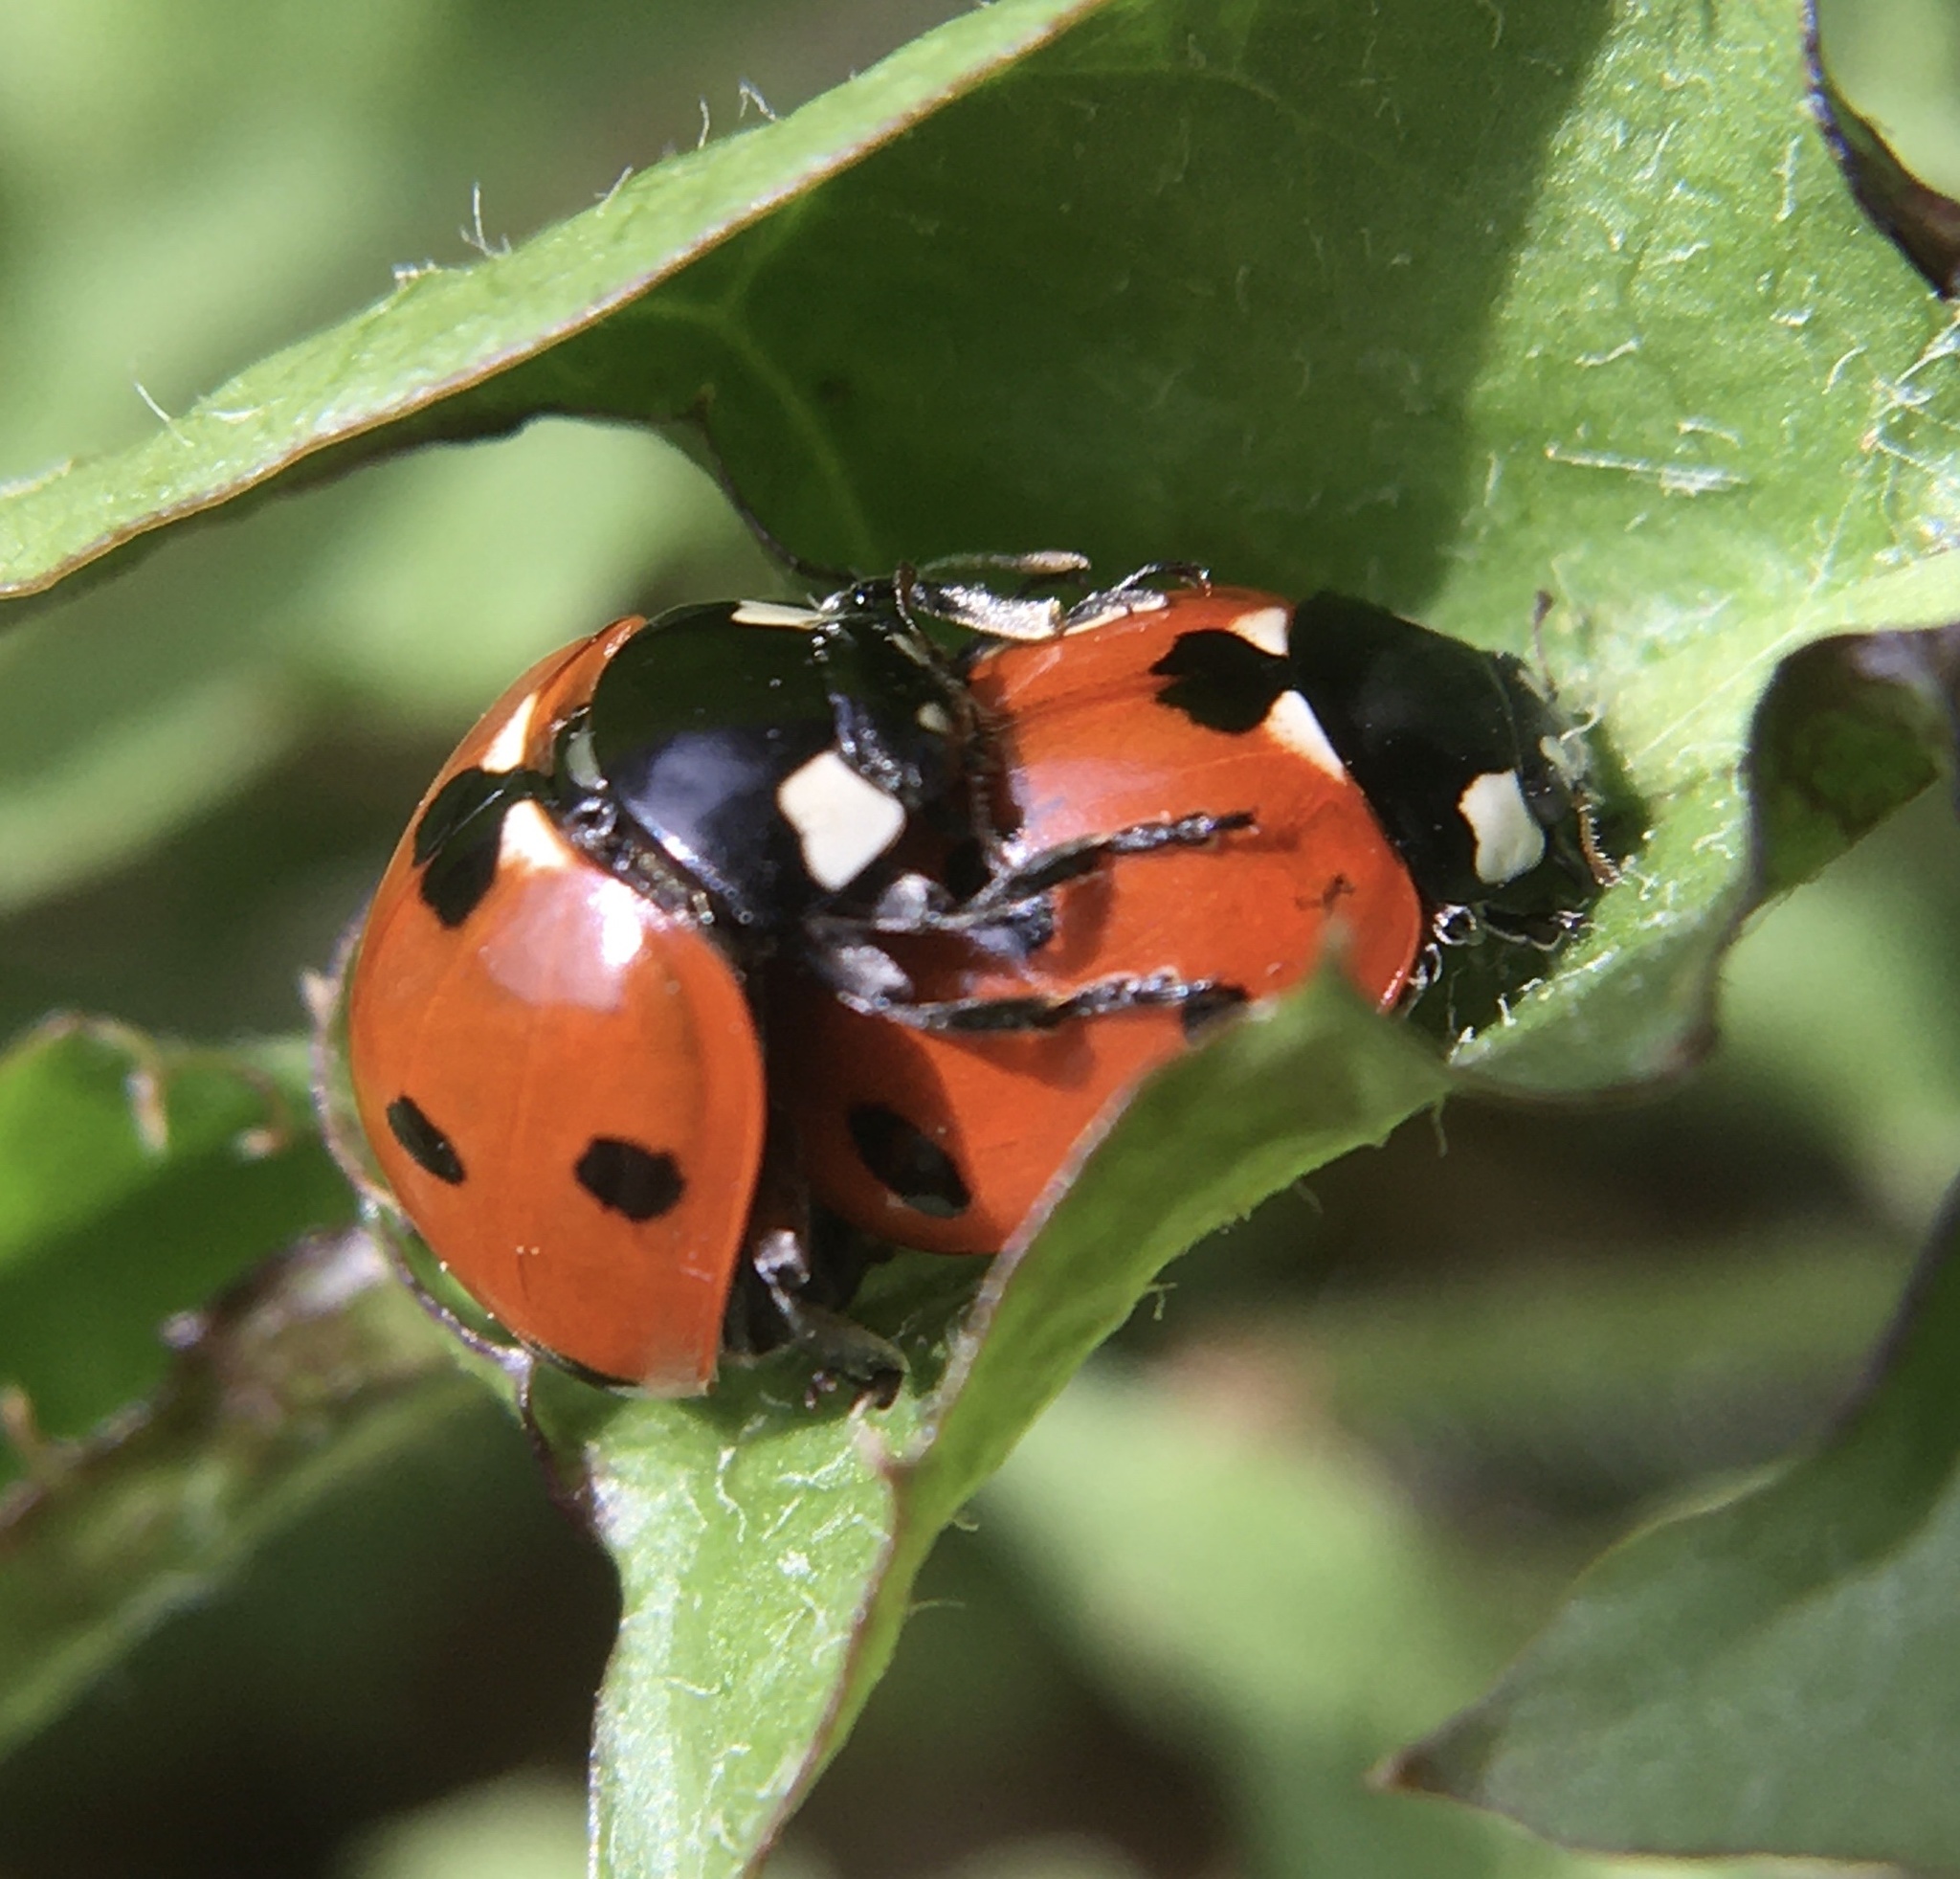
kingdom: Animalia
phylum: Arthropoda
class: Insecta
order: Coleoptera
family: Coccinellidae
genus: Coccinella
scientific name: Coccinella septempunctata
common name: Sevenspotted lady beetle
